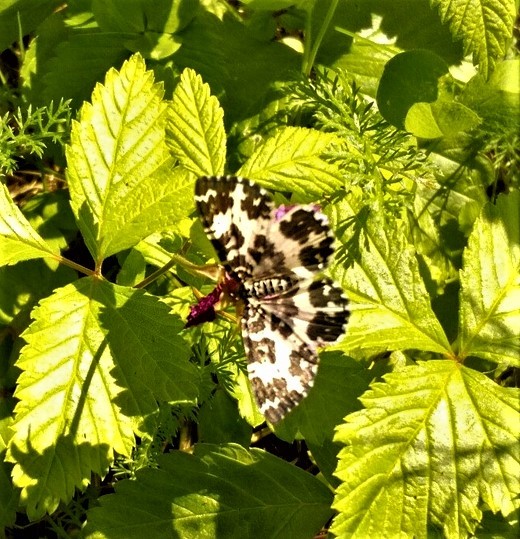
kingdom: Animalia
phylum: Arthropoda
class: Insecta
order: Lepidoptera
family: Geometridae
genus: Rheumaptera
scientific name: Rheumaptera hastata
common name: Argent & sable
